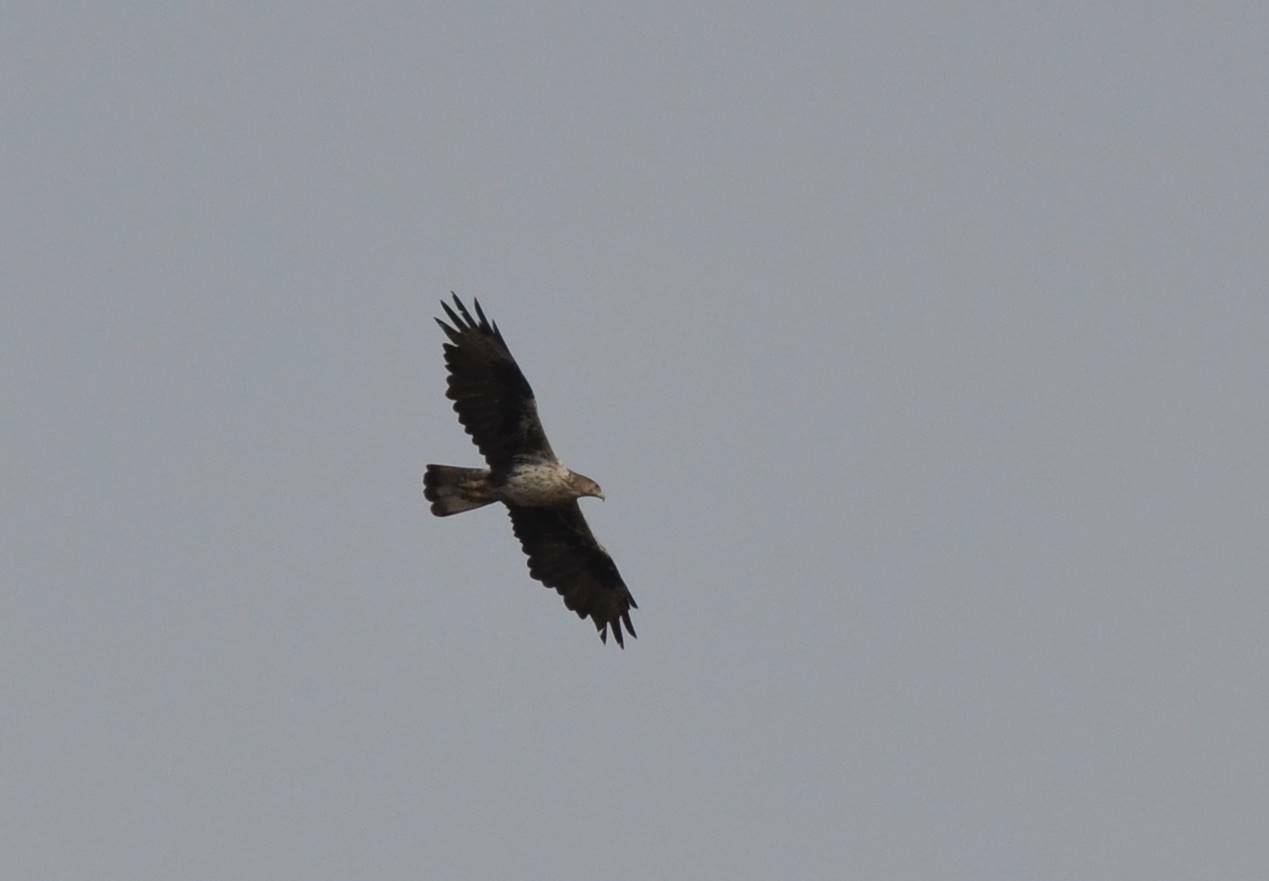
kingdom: Animalia
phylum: Chordata
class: Aves
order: Accipitriformes
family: Accipitridae
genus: Aquila
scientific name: Aquila fasciata
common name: Bonelli's eagle
